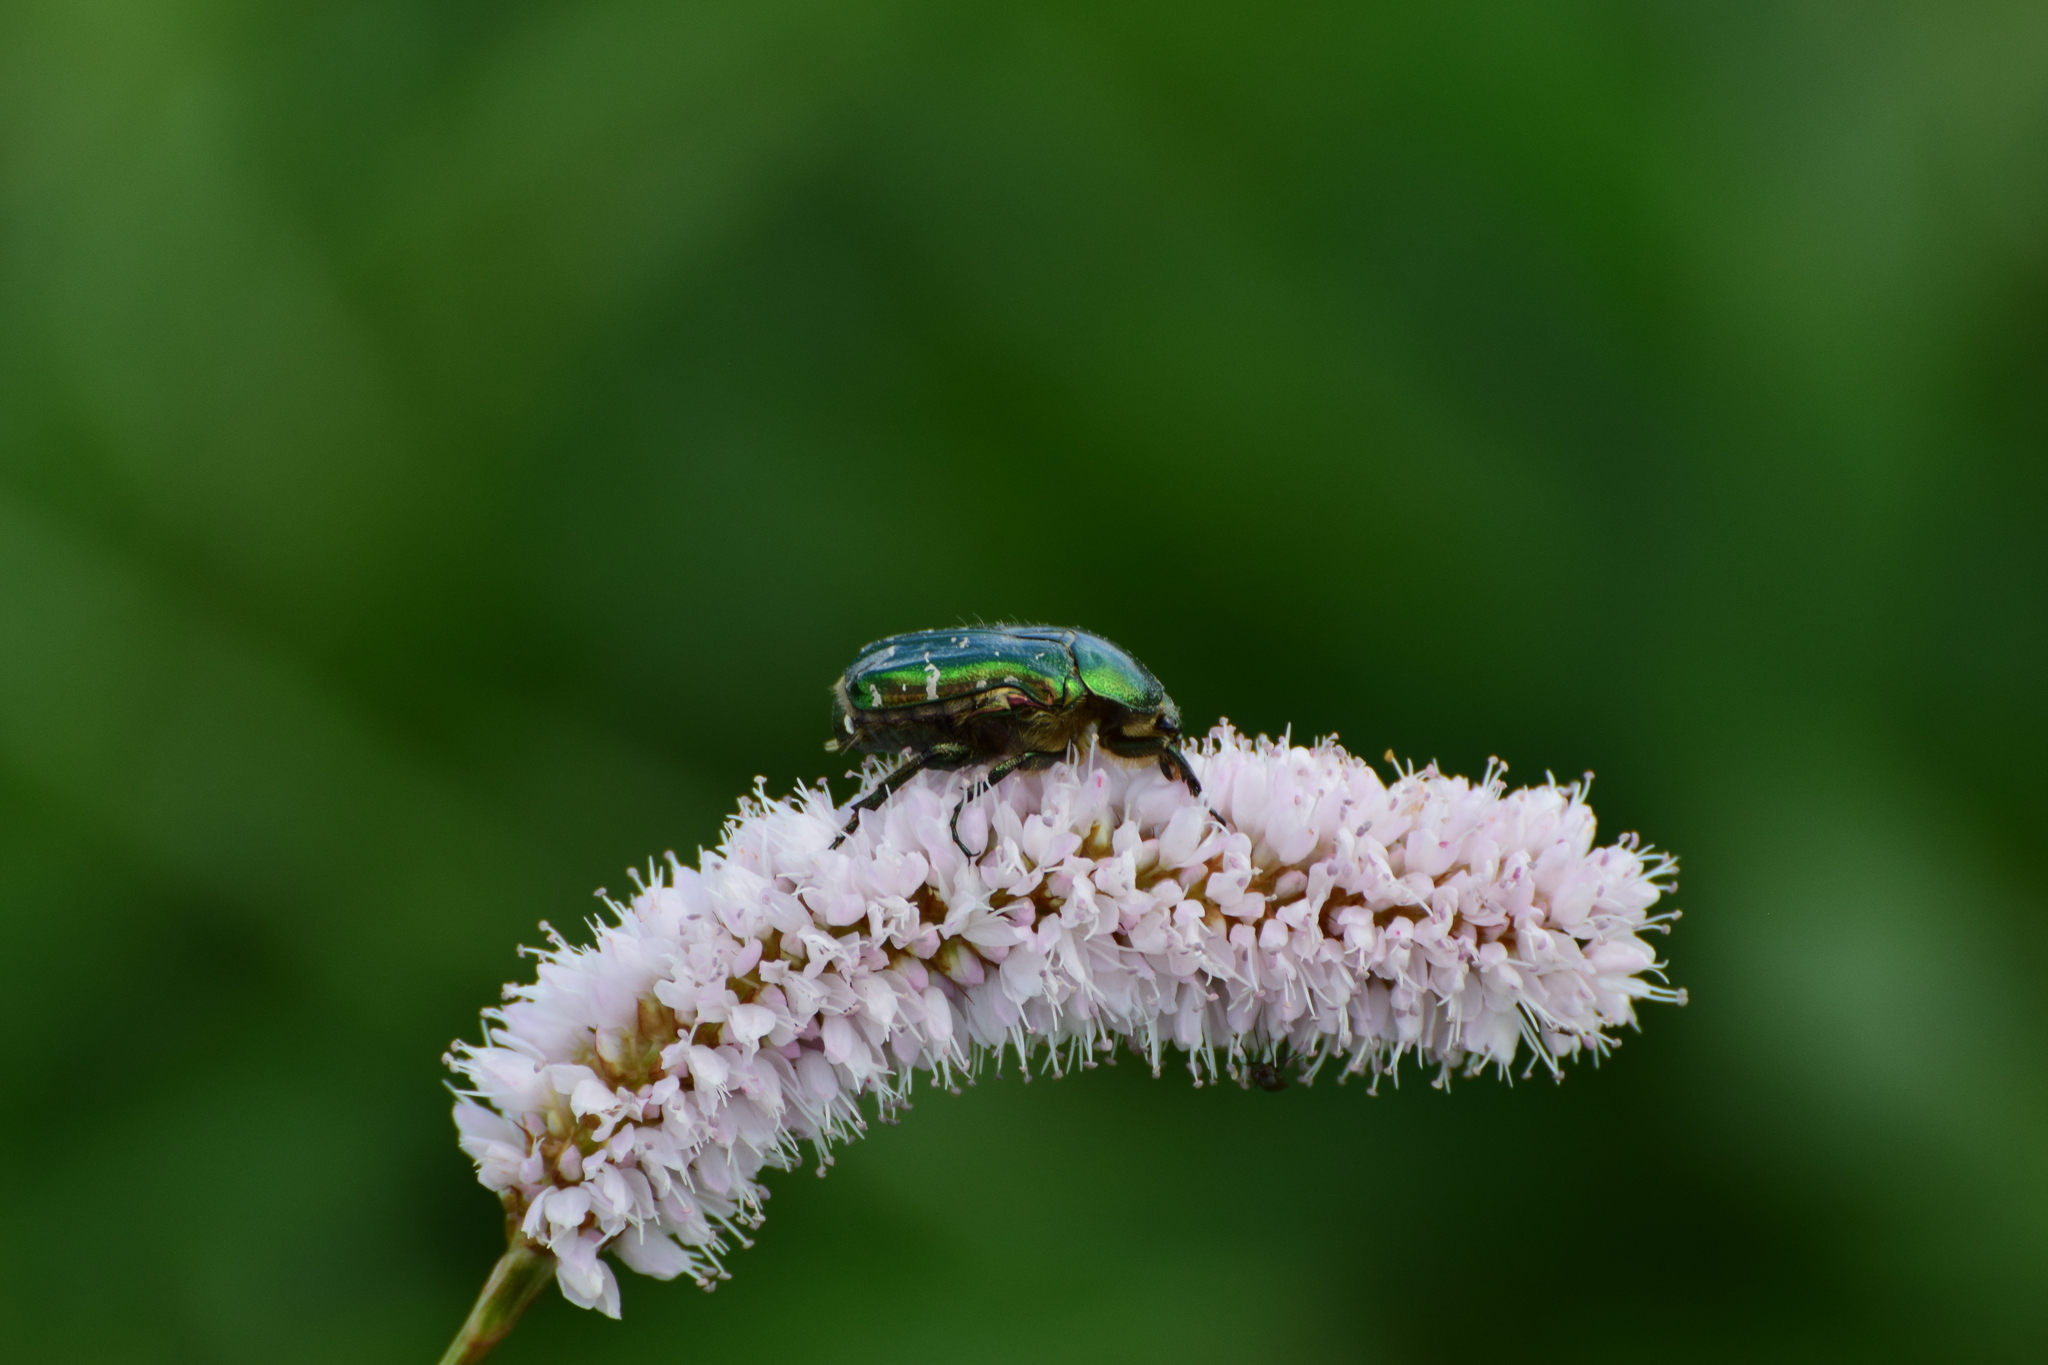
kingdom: Animalia
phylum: Arthropoda
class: Insecta
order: Coleoptera
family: Scarabaeidae
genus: Cetonia
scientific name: Cetonia aurata
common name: Rose chafer
